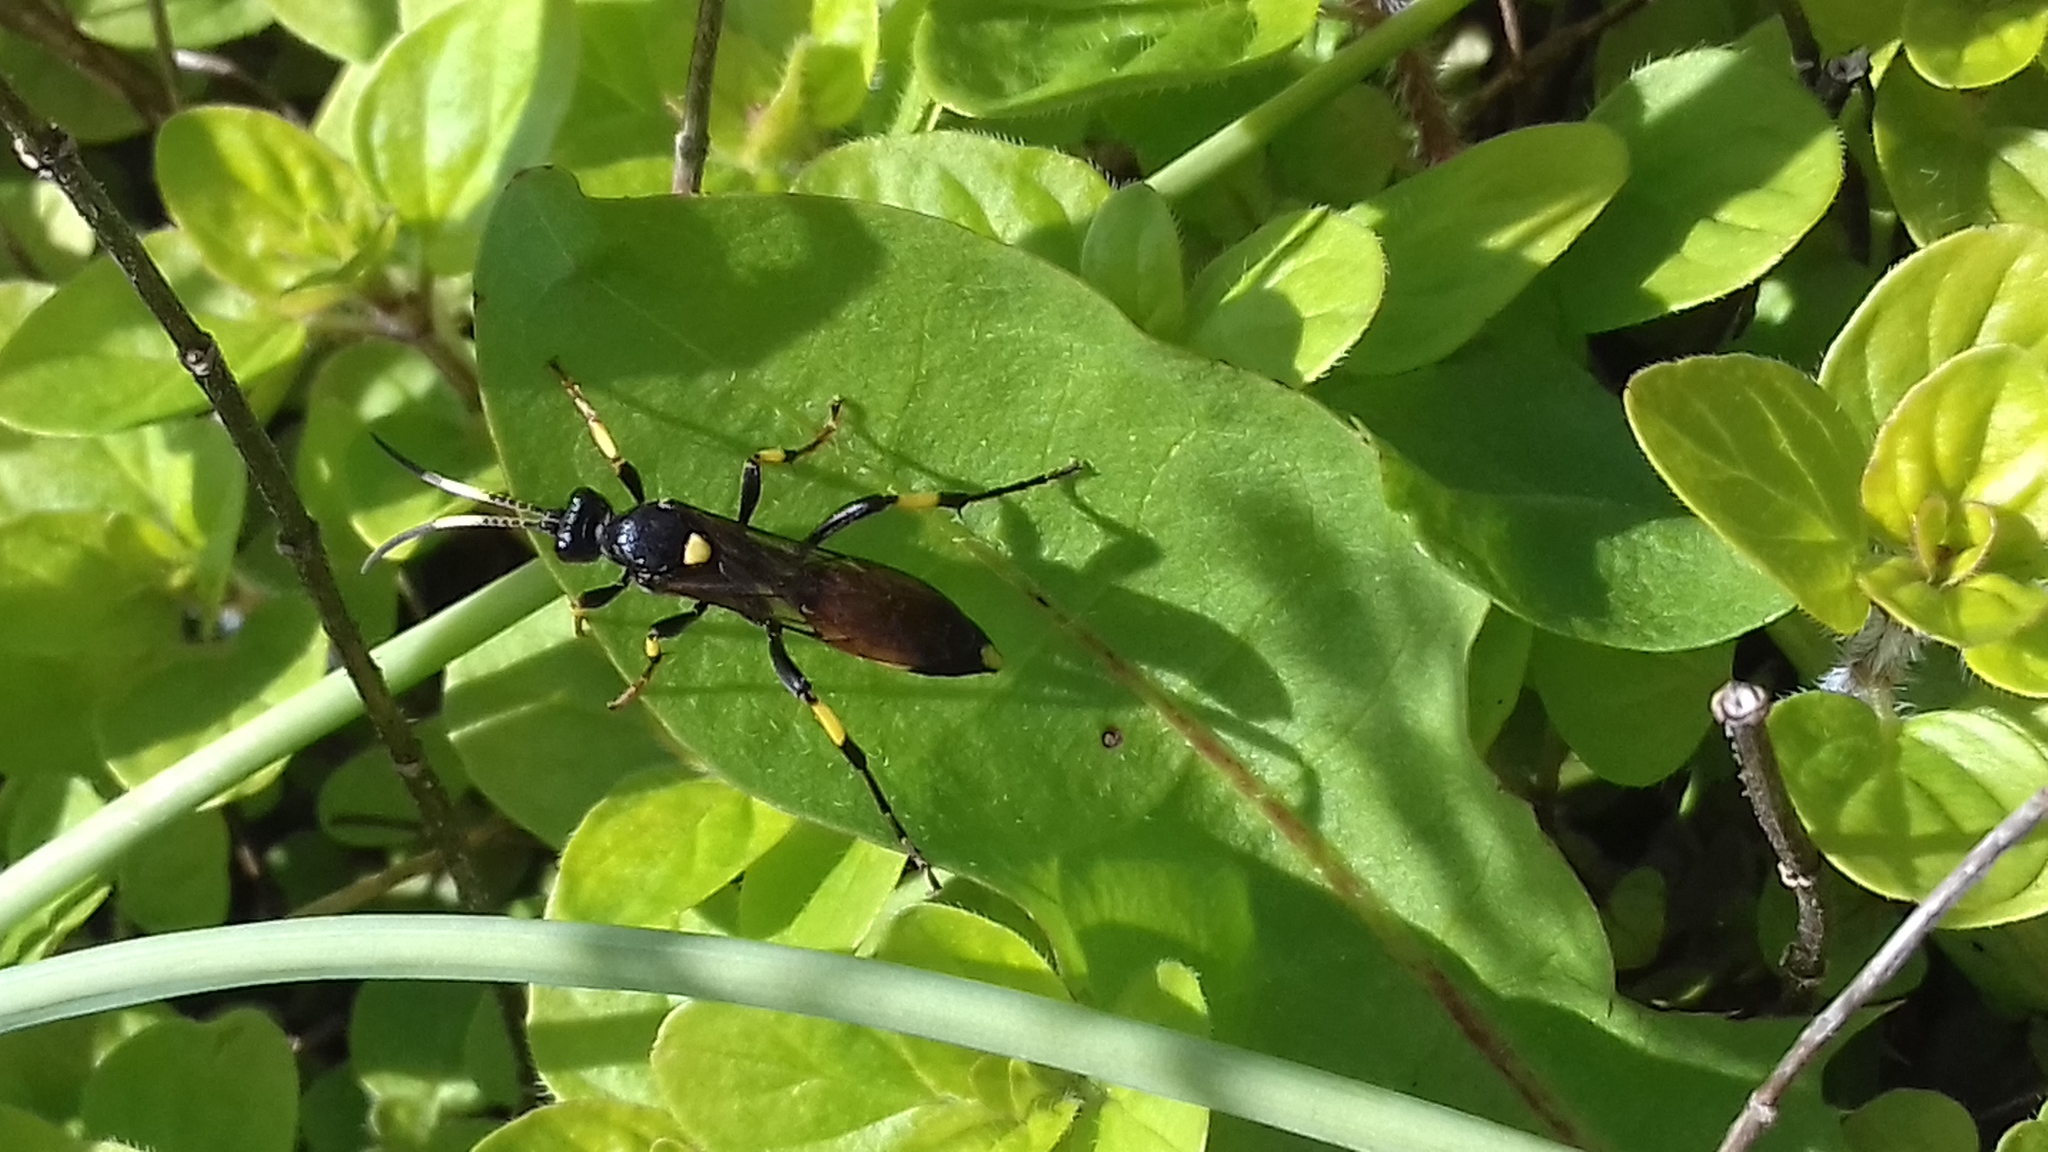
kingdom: Animalia
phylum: Arthropoda
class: Insecta
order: Hymenoptera
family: Ichneumonidae
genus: Ichneumon
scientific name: Ichneumon stramentor
